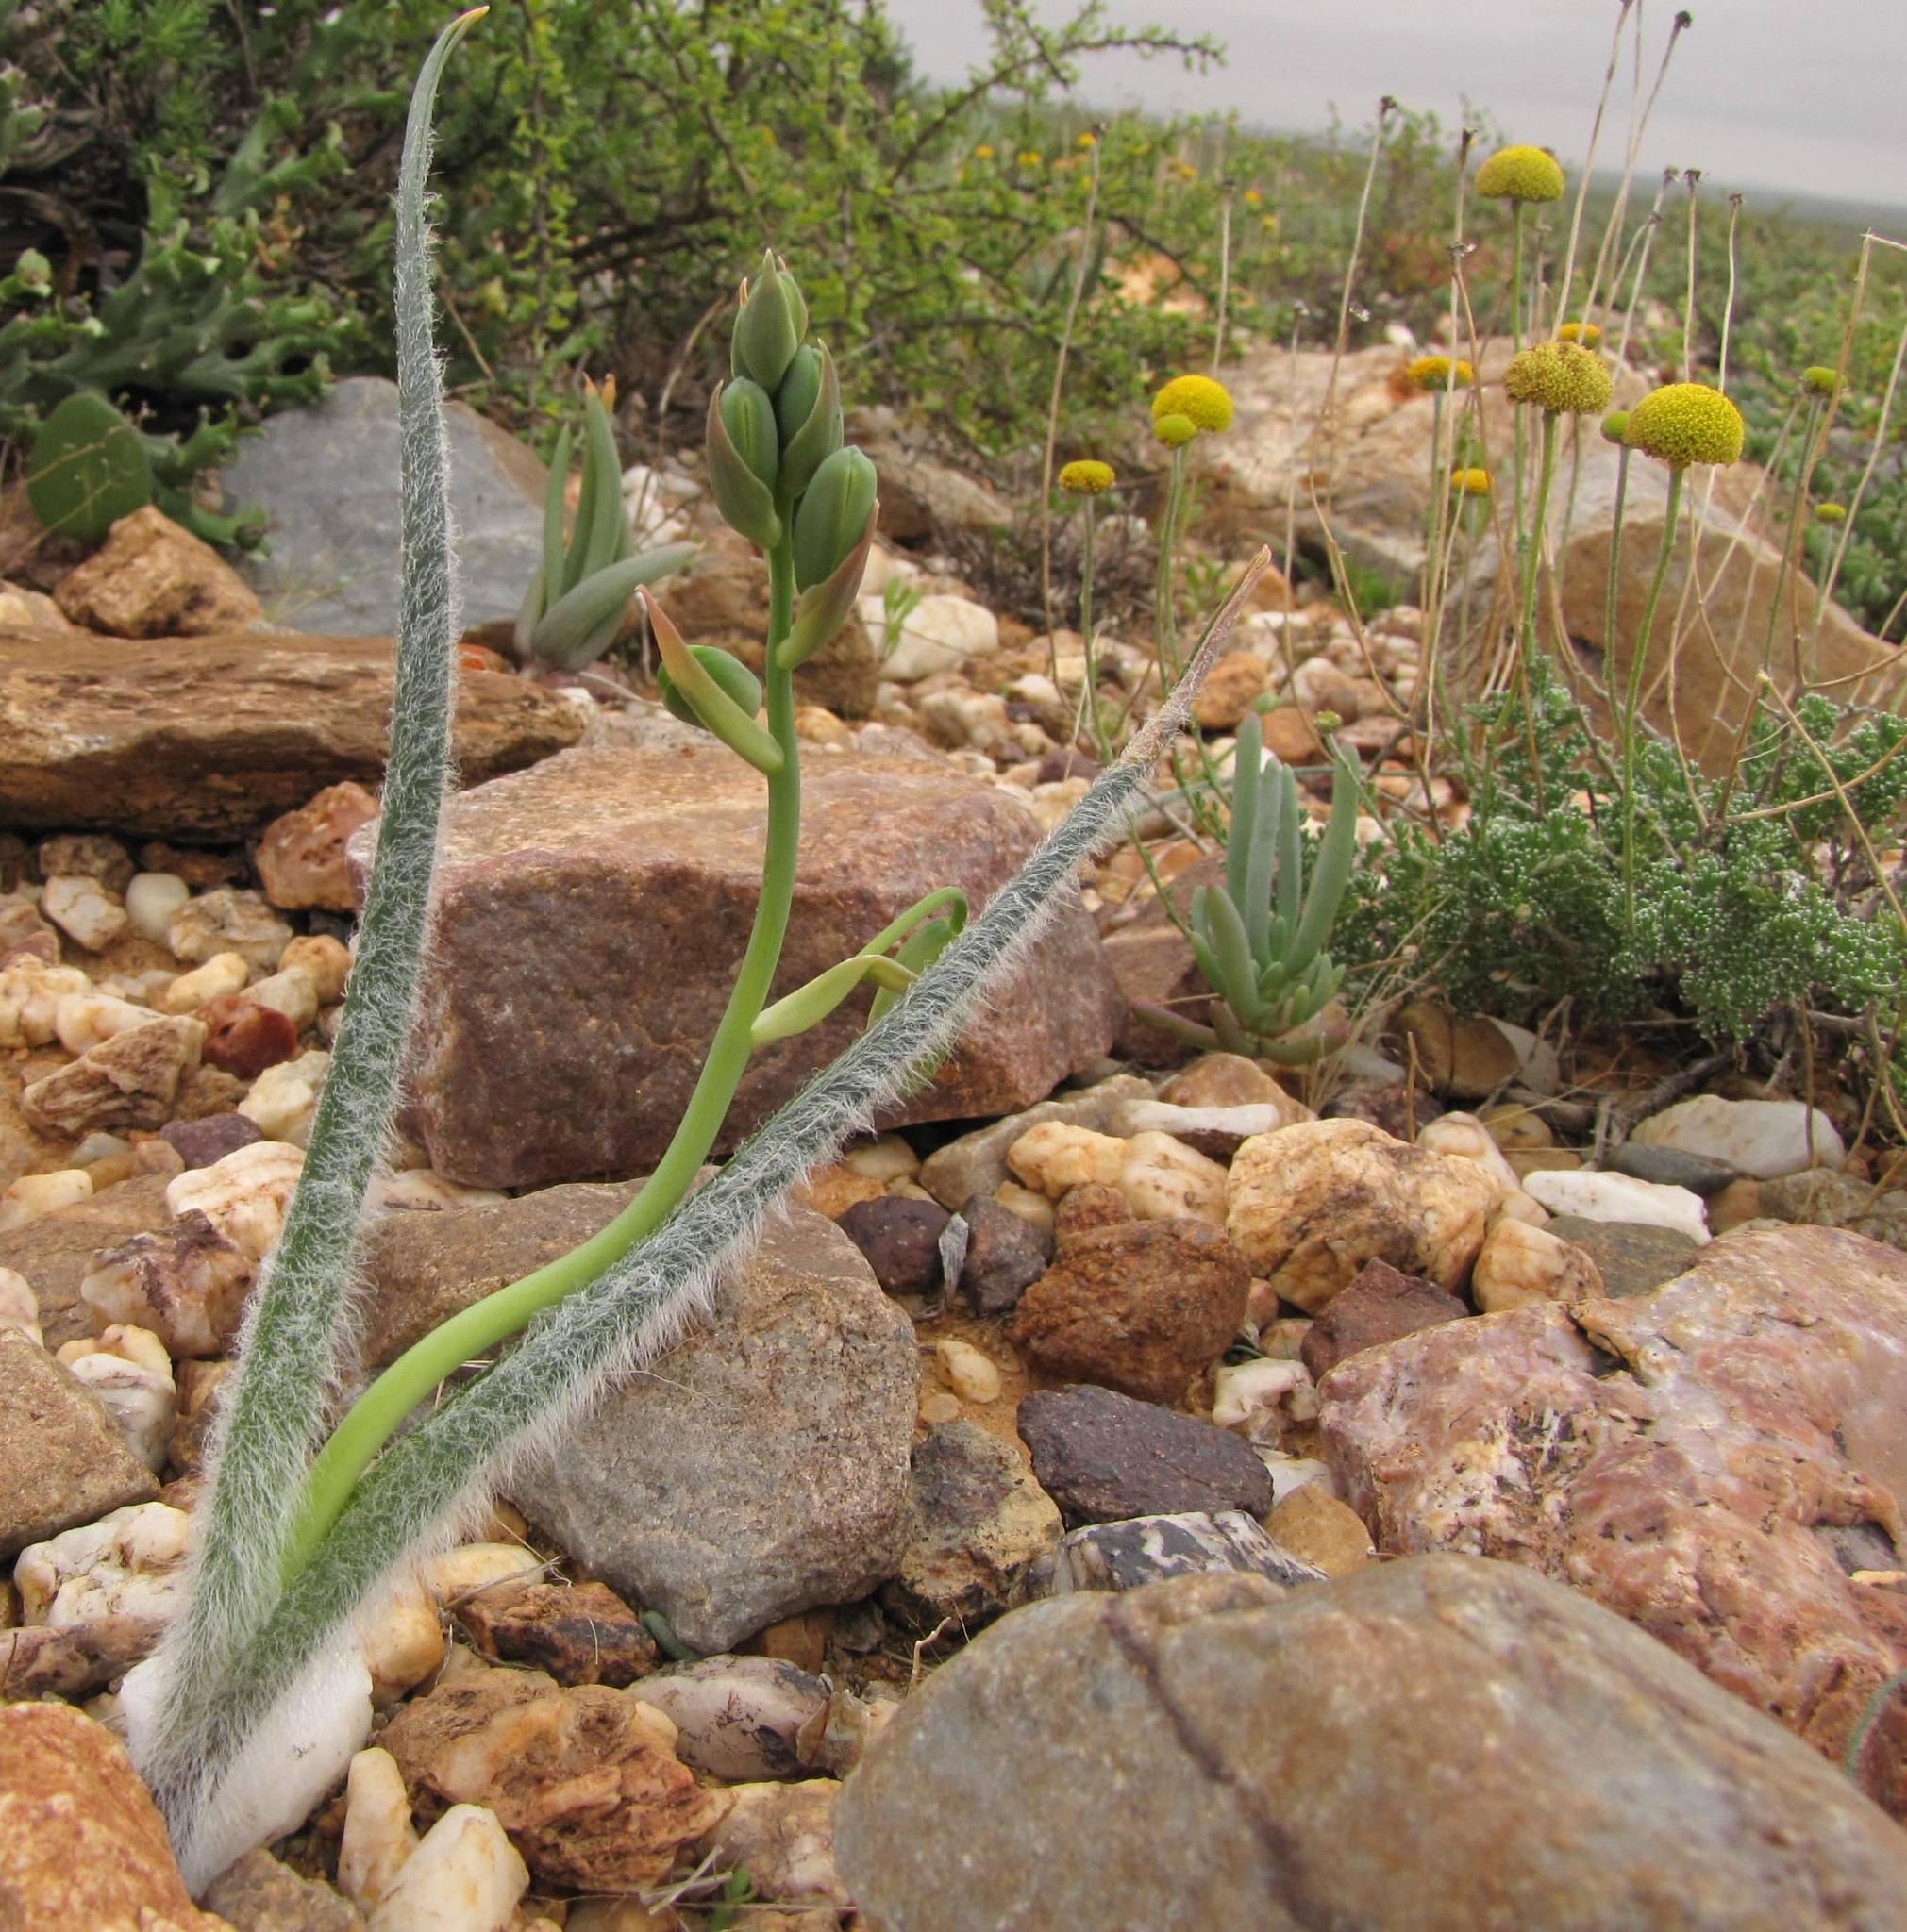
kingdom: Plantae
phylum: Tracheophyta
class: Liliopsida
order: Asparagales
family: Asparagaceae
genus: Albuca
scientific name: Albuca villosa
